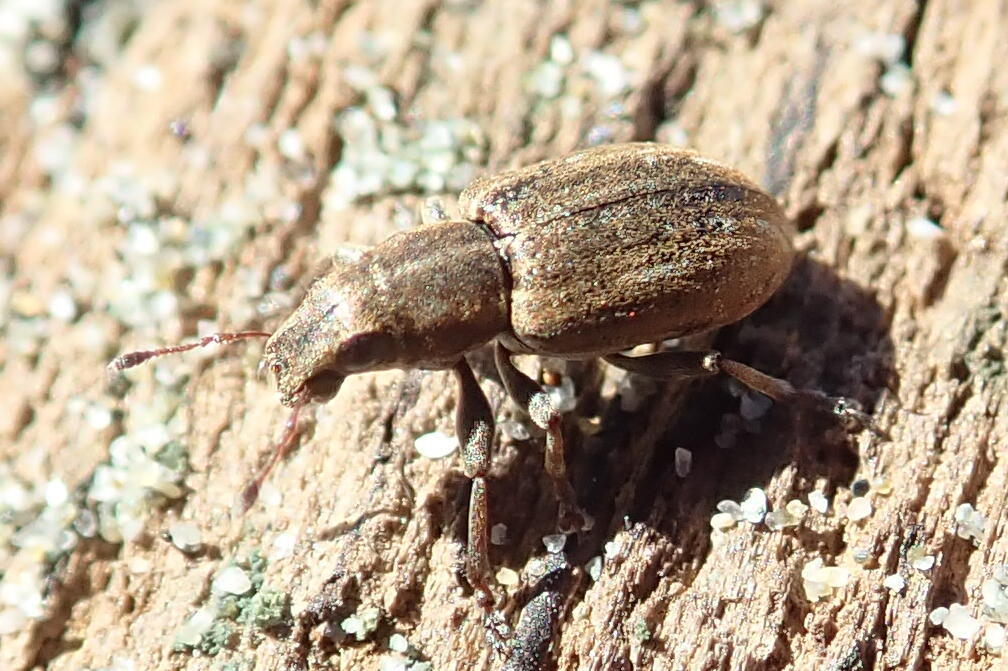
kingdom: Animalia
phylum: Arthropoda
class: Insecta
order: Coleoptera
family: Curculionidae
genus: Sitona
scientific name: Sitona obsoletus
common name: Weevil
